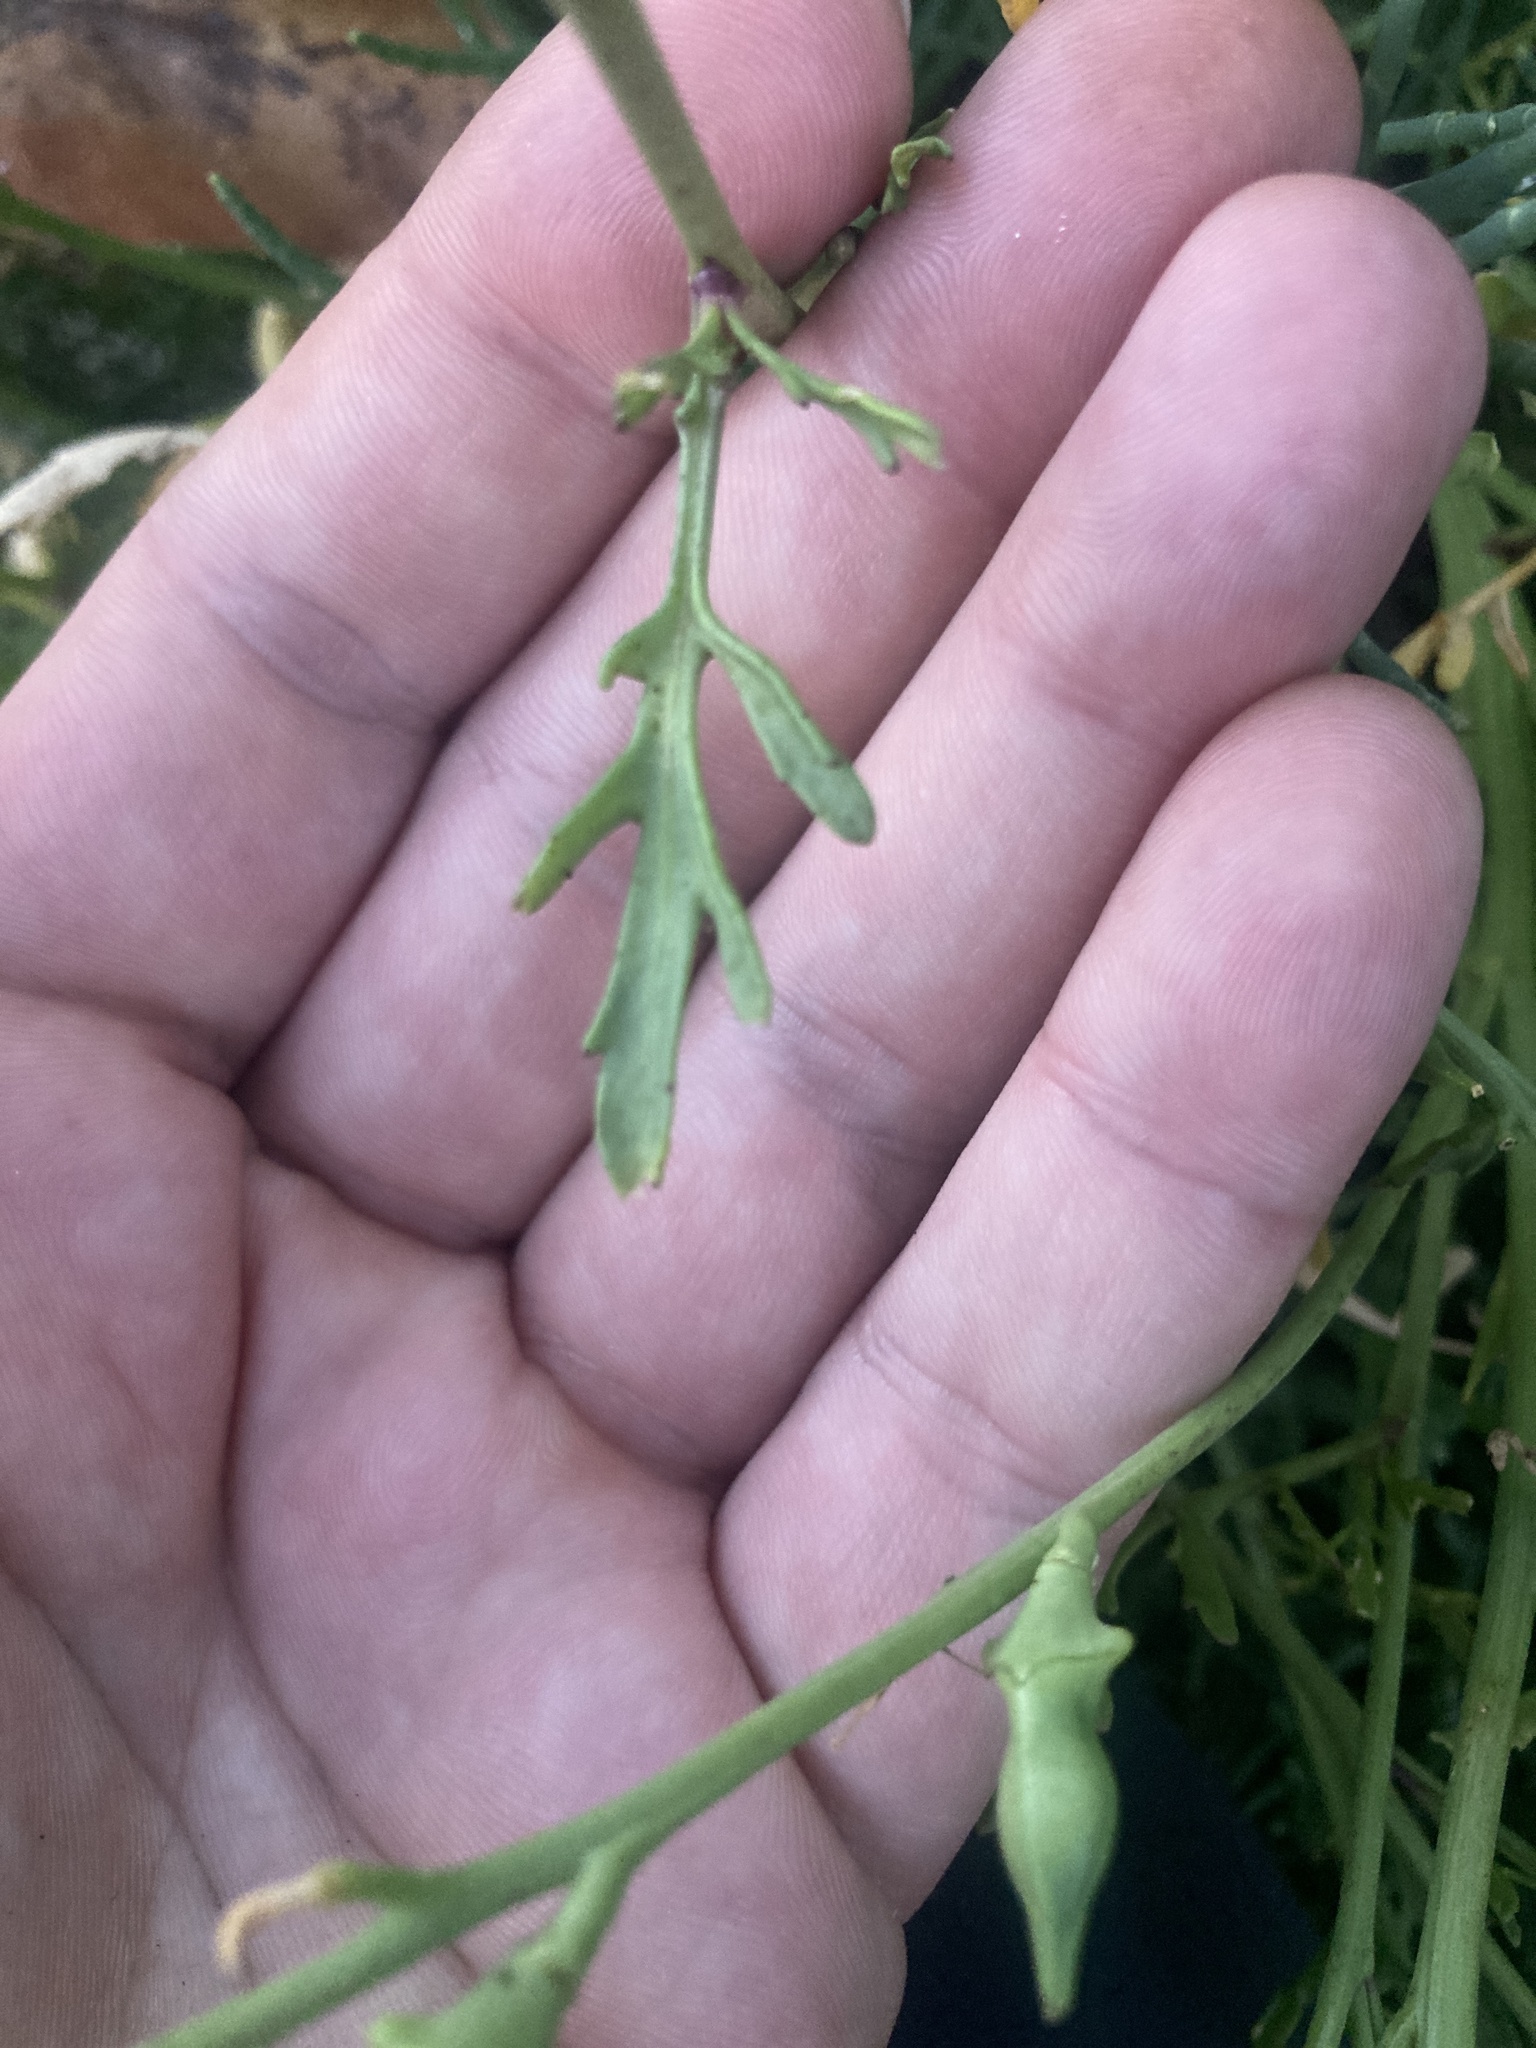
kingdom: Plantae
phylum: Tracheophyta
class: Magnoliopsida
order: Brassicales
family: Brassicaceae
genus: Cakile
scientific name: Cakile maritima
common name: Sea rocket
